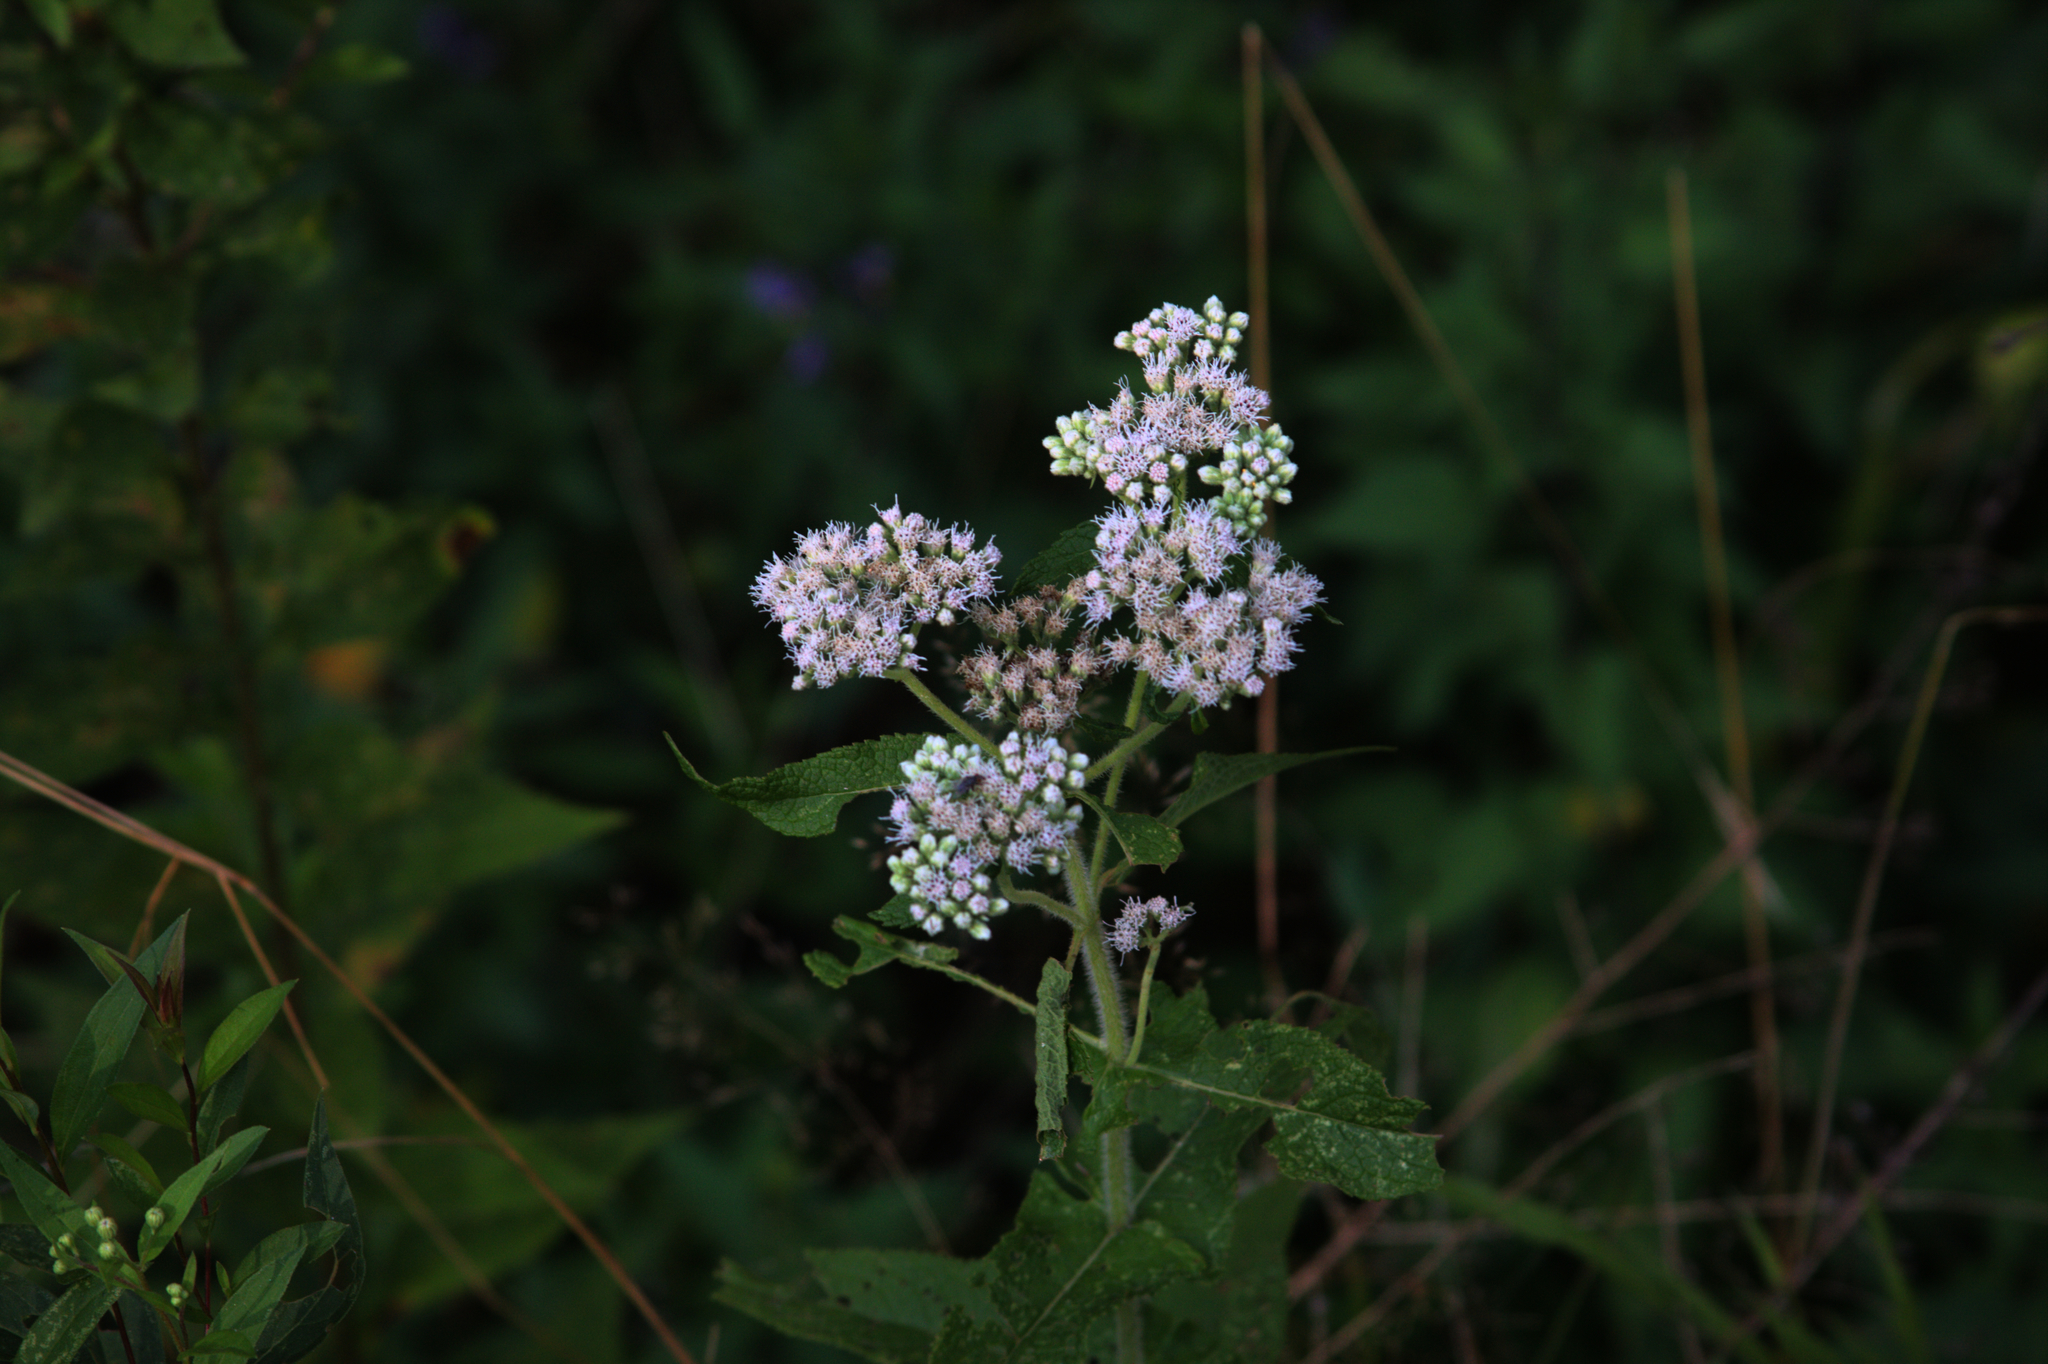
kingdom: Plantae
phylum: Tracheophyta
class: Magnoliopsida
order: Asterales
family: Asteraceae
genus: Eupatorium
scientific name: Eupatorium perfoliatum
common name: Boneset
